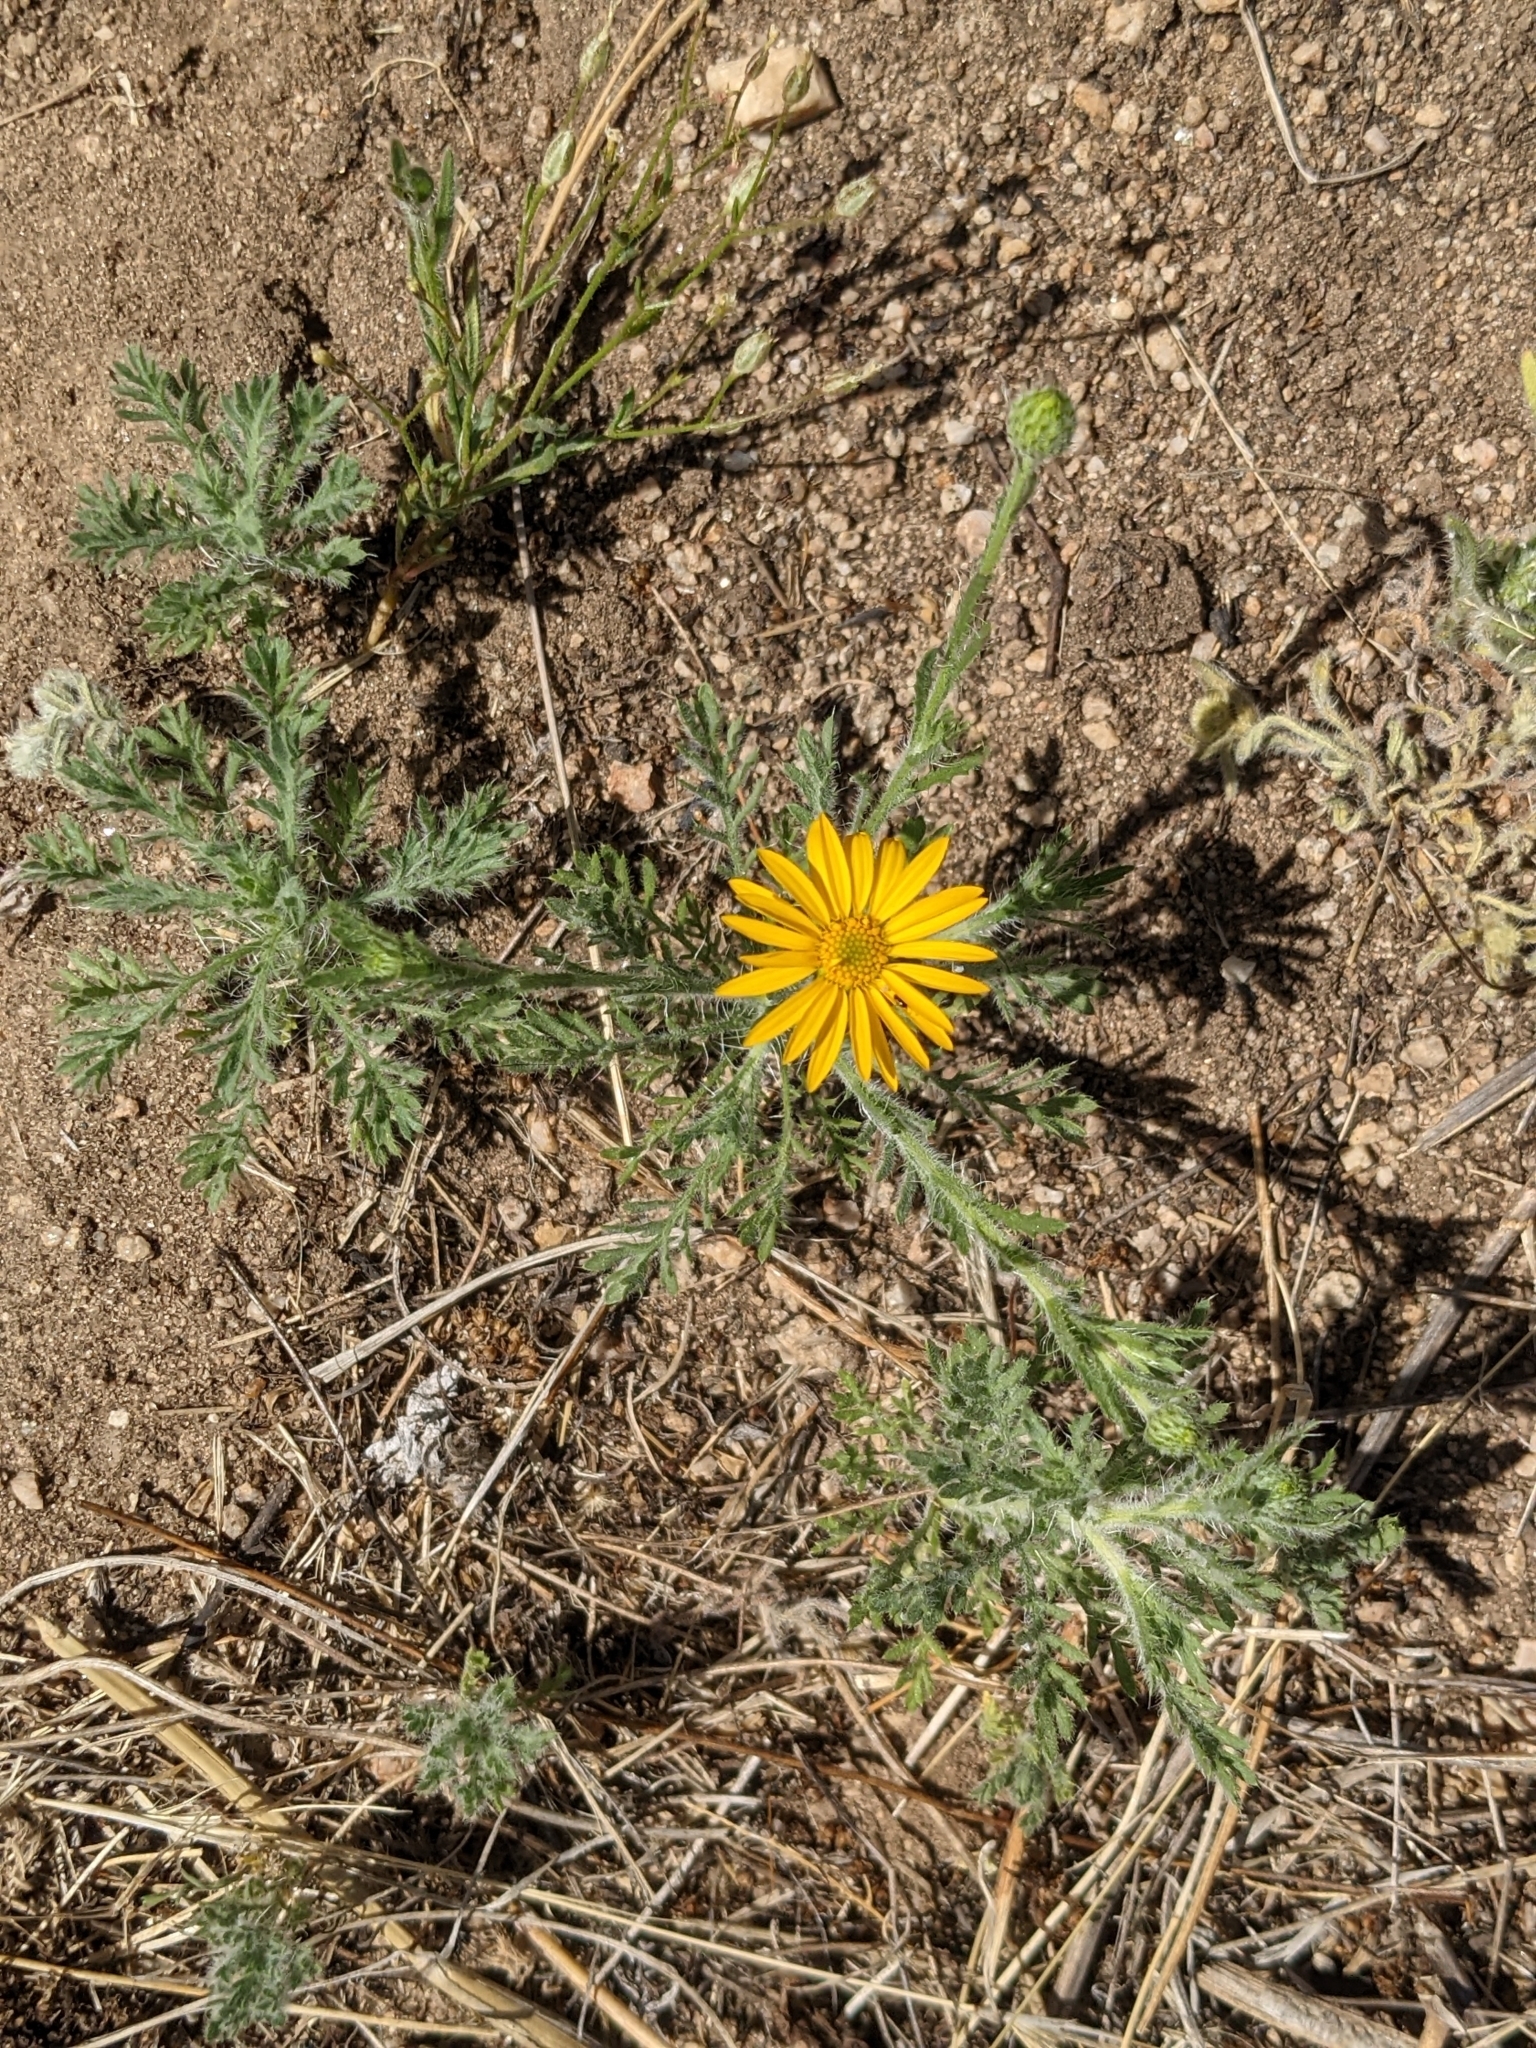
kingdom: Plantae
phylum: Tracheophyta
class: Magnoliopsida
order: Asterales
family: Asteraceae
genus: Xanthisma
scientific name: Xanthisma spinulosum
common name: Spiny goldenweed
